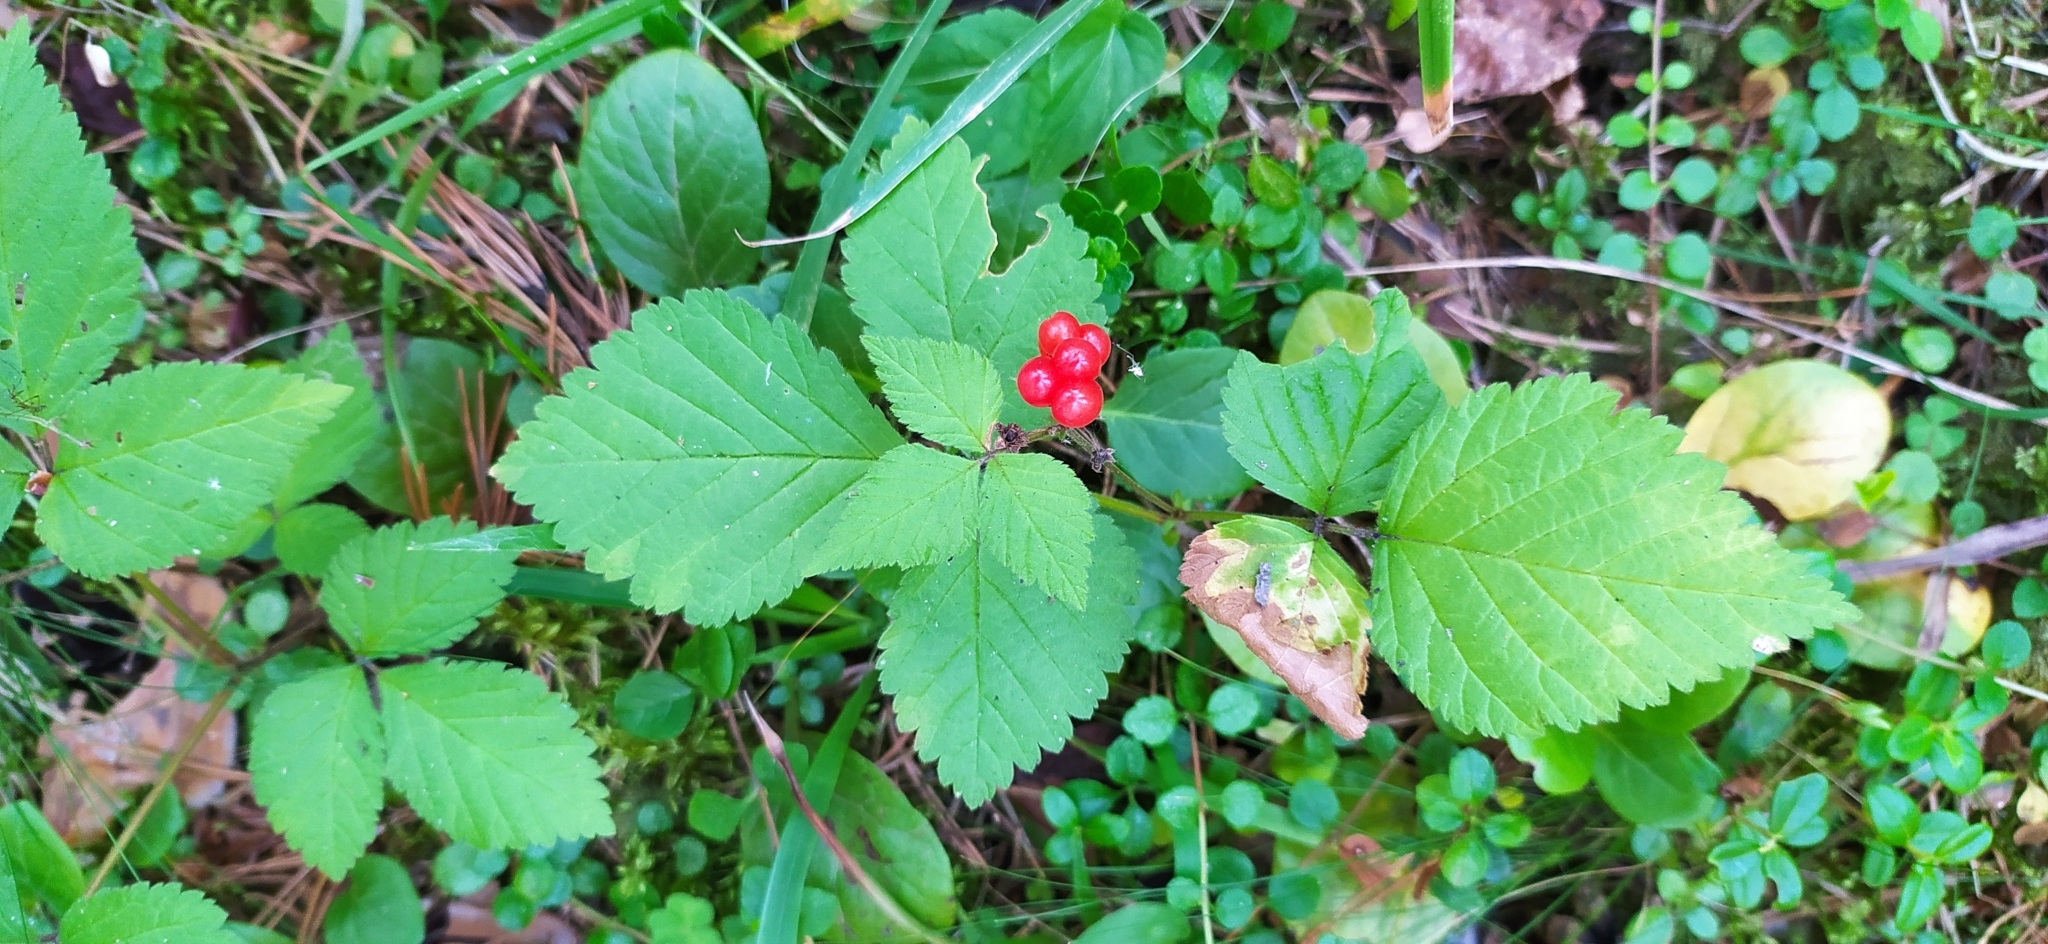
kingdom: Plantae
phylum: Tracheophyta
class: Magnoliopsida
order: Rosales
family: Rosaceae
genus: Rubus
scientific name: Rubus saxatilis
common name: Stone bramble
